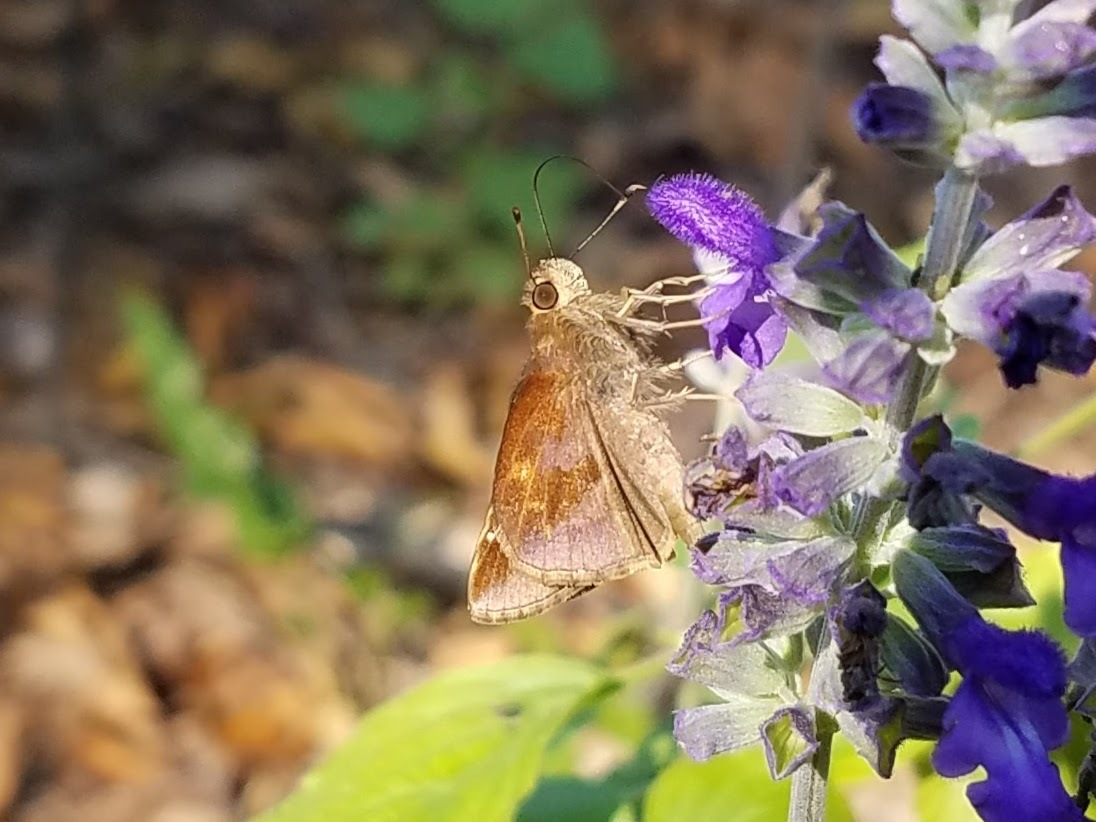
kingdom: Animalia
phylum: Arthropoda
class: Insecta
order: Lepidoptera
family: Hesperiidae
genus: Lerema
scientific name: Lerema accius
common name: Clouded skipper
